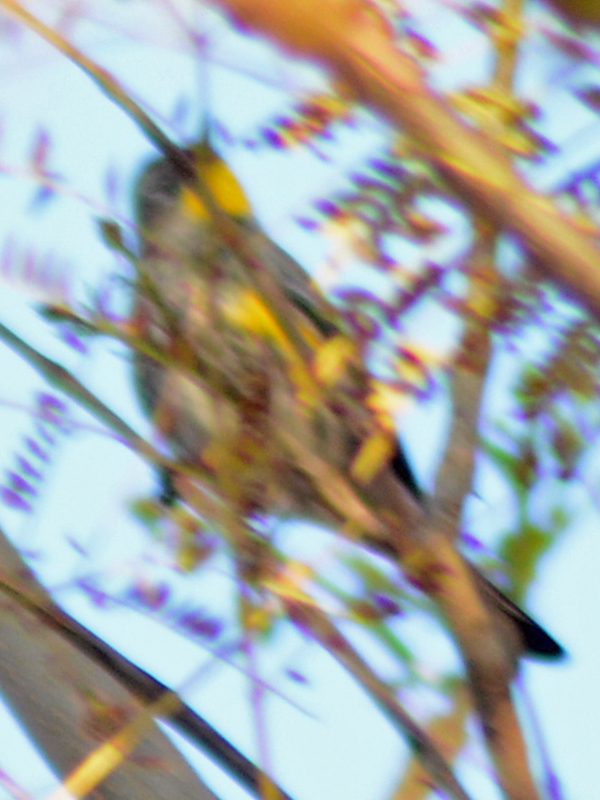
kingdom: Animalia
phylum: Chordata
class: Aves
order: Passeriformes
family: Parulidae
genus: Setophaga
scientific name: Setophaga coronata
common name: Myrtle warbler
